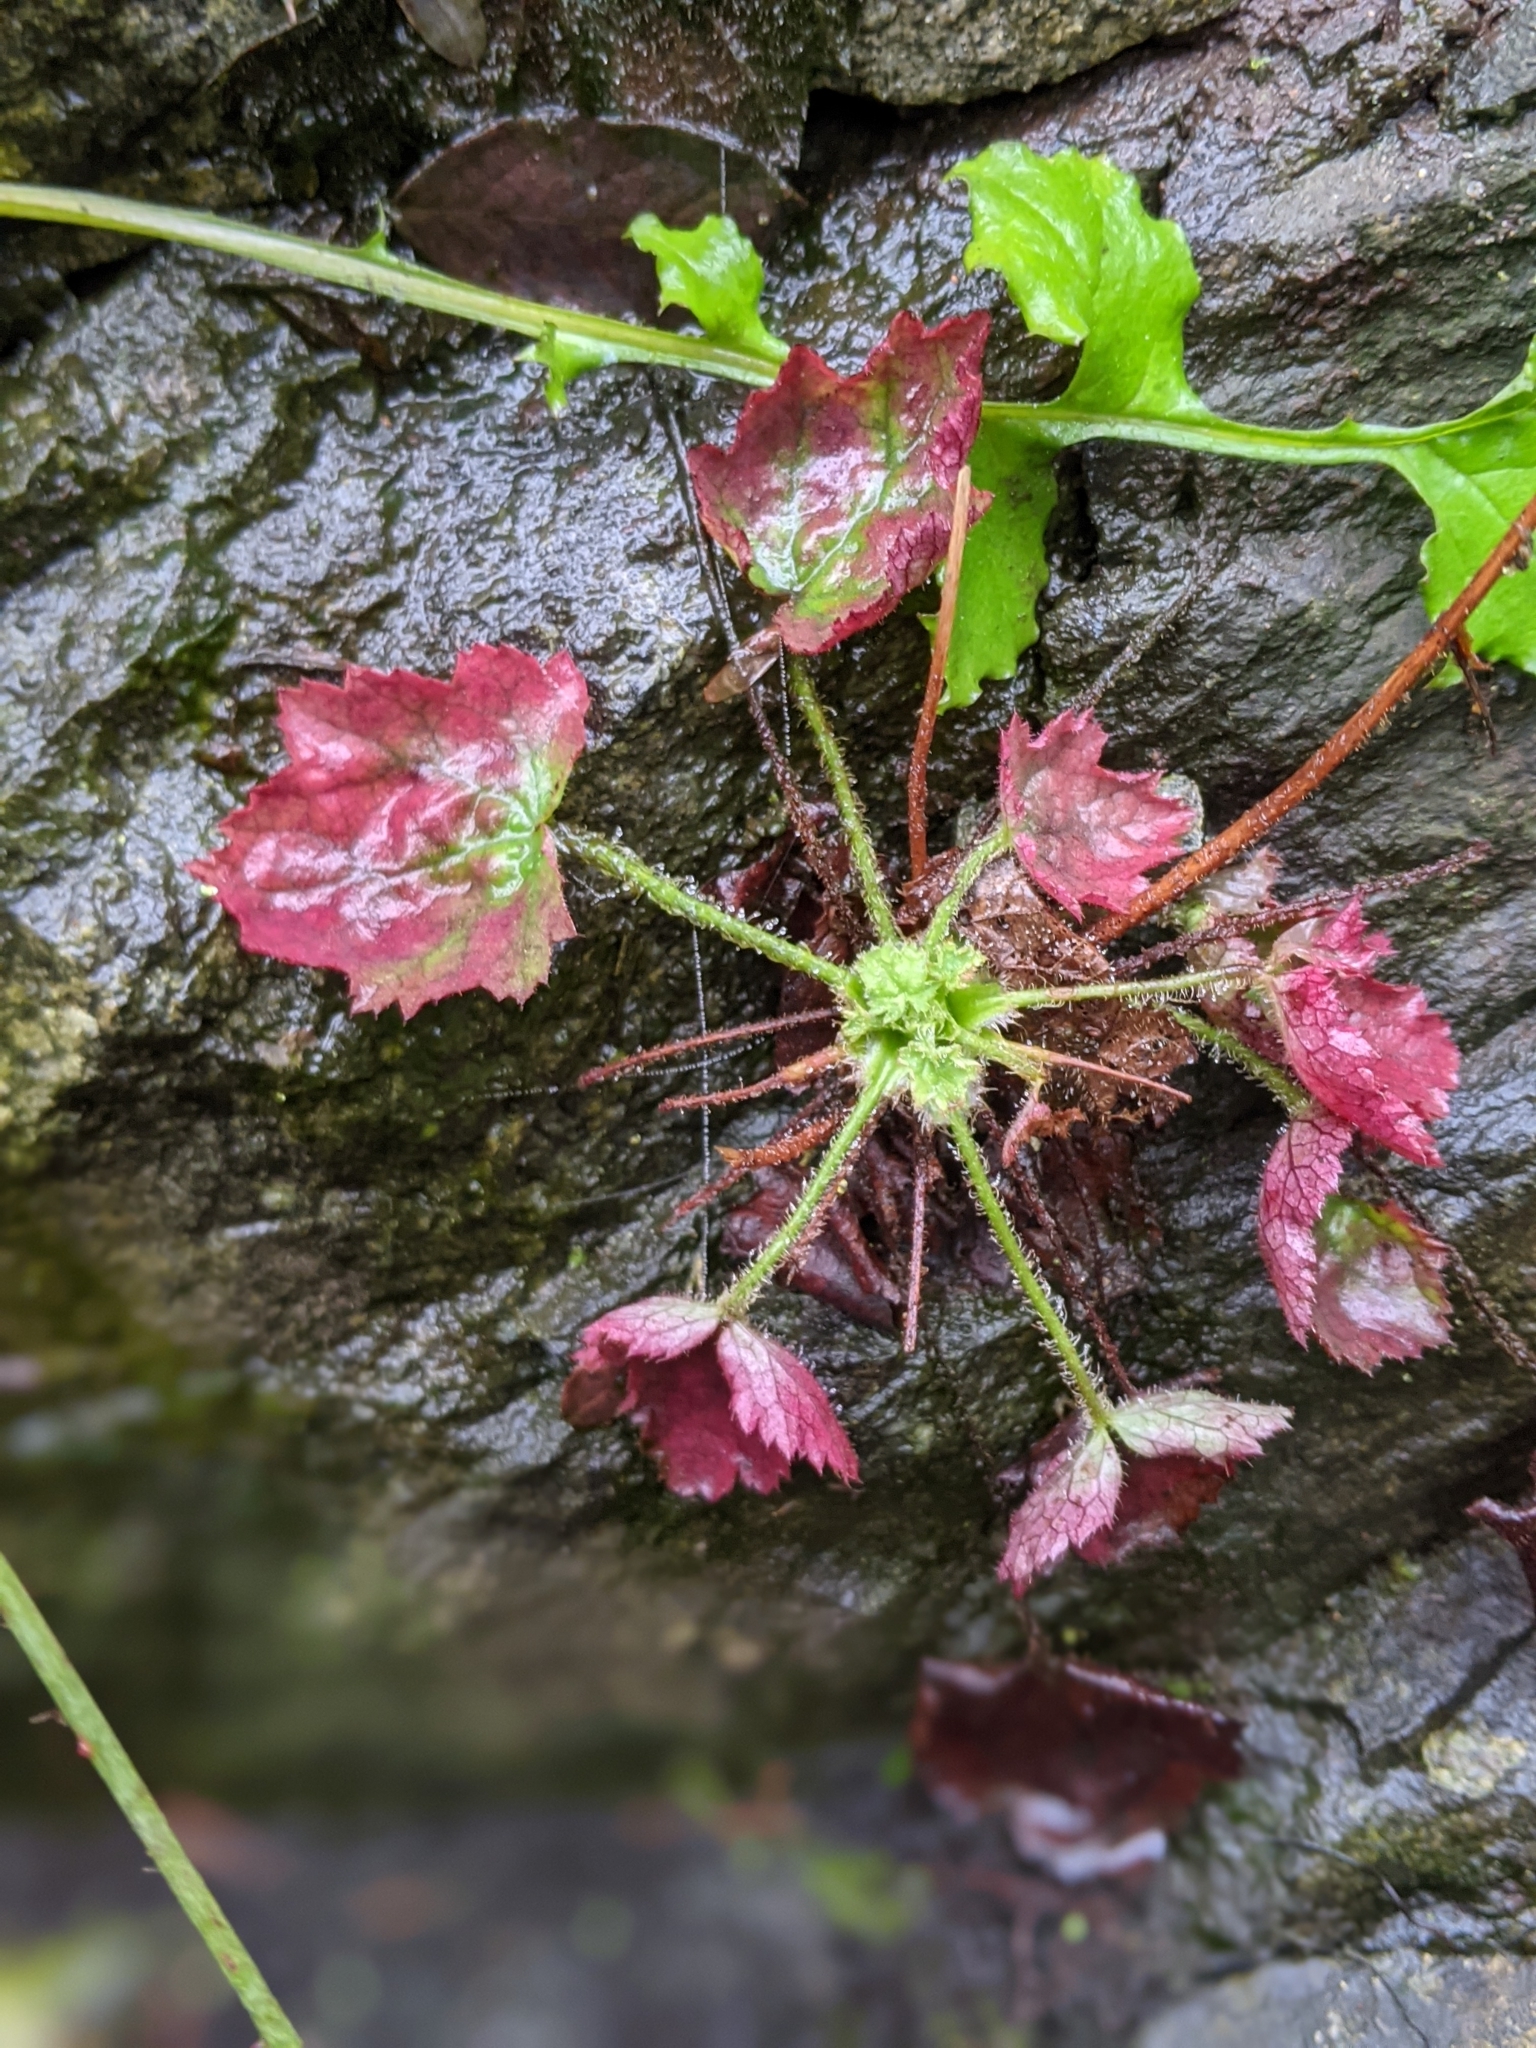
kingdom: Plantae
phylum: Tracheophyta
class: Magnoliopsida
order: Saxifragales
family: Saxifragaceae
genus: Heuchera
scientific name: Heuchera micrantha
